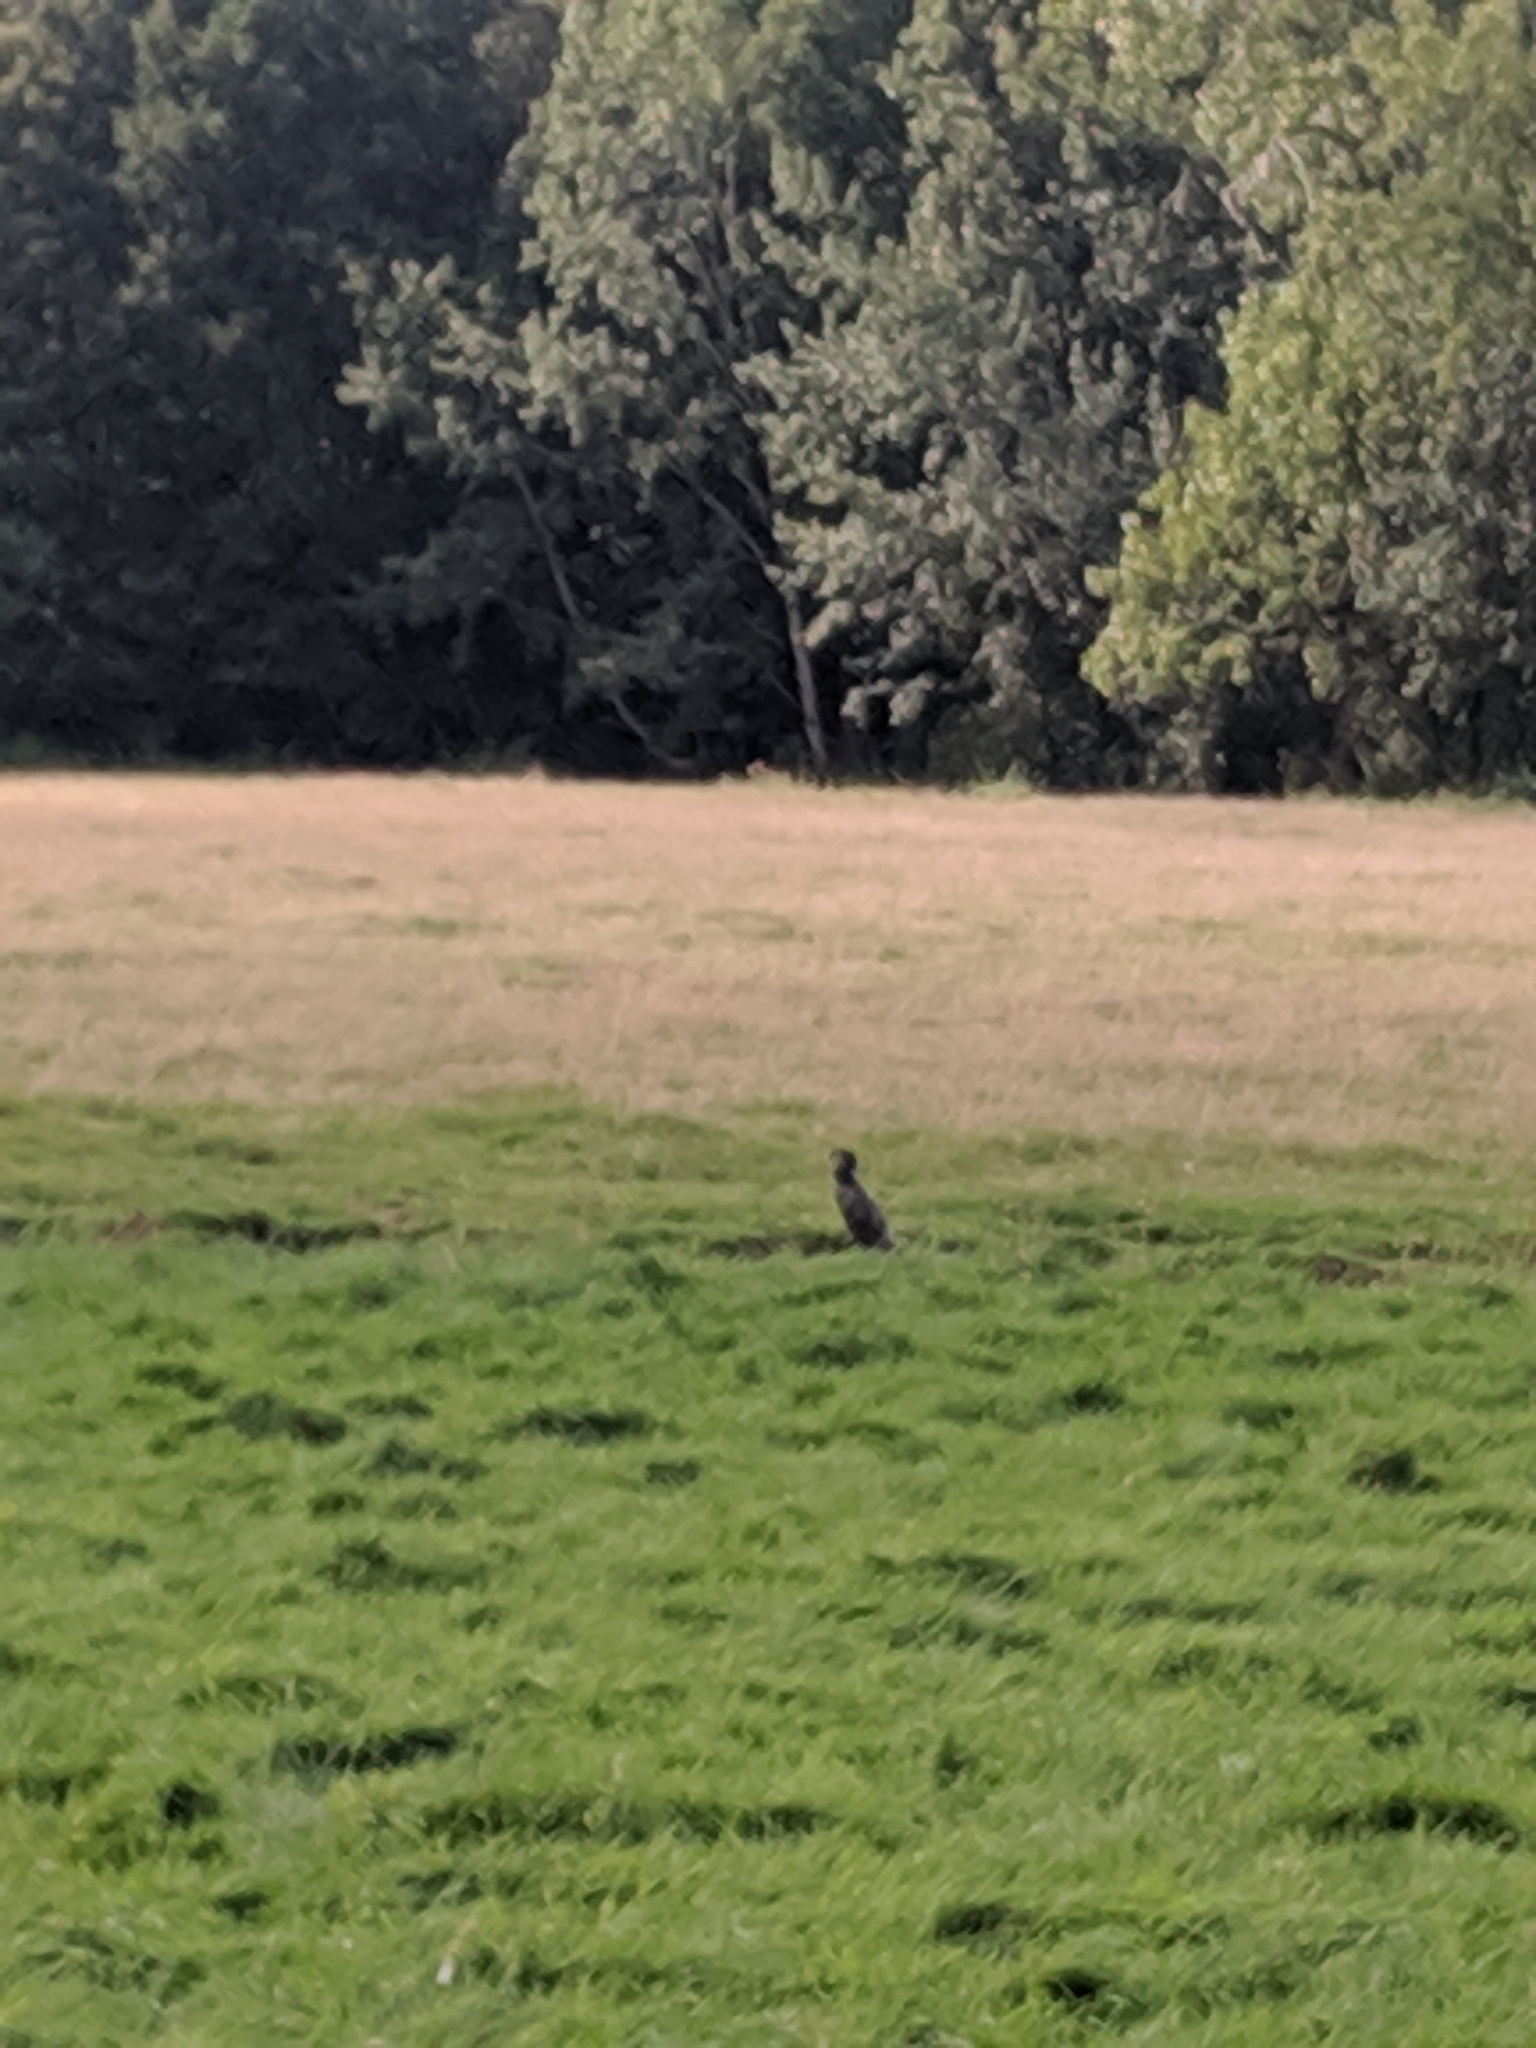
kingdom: Animalia
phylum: Chordata
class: Aves
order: Suliformes
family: Phalacrocoracidae
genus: Phalacrocorax
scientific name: Phalacrocorax carbo
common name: Great cormorant
